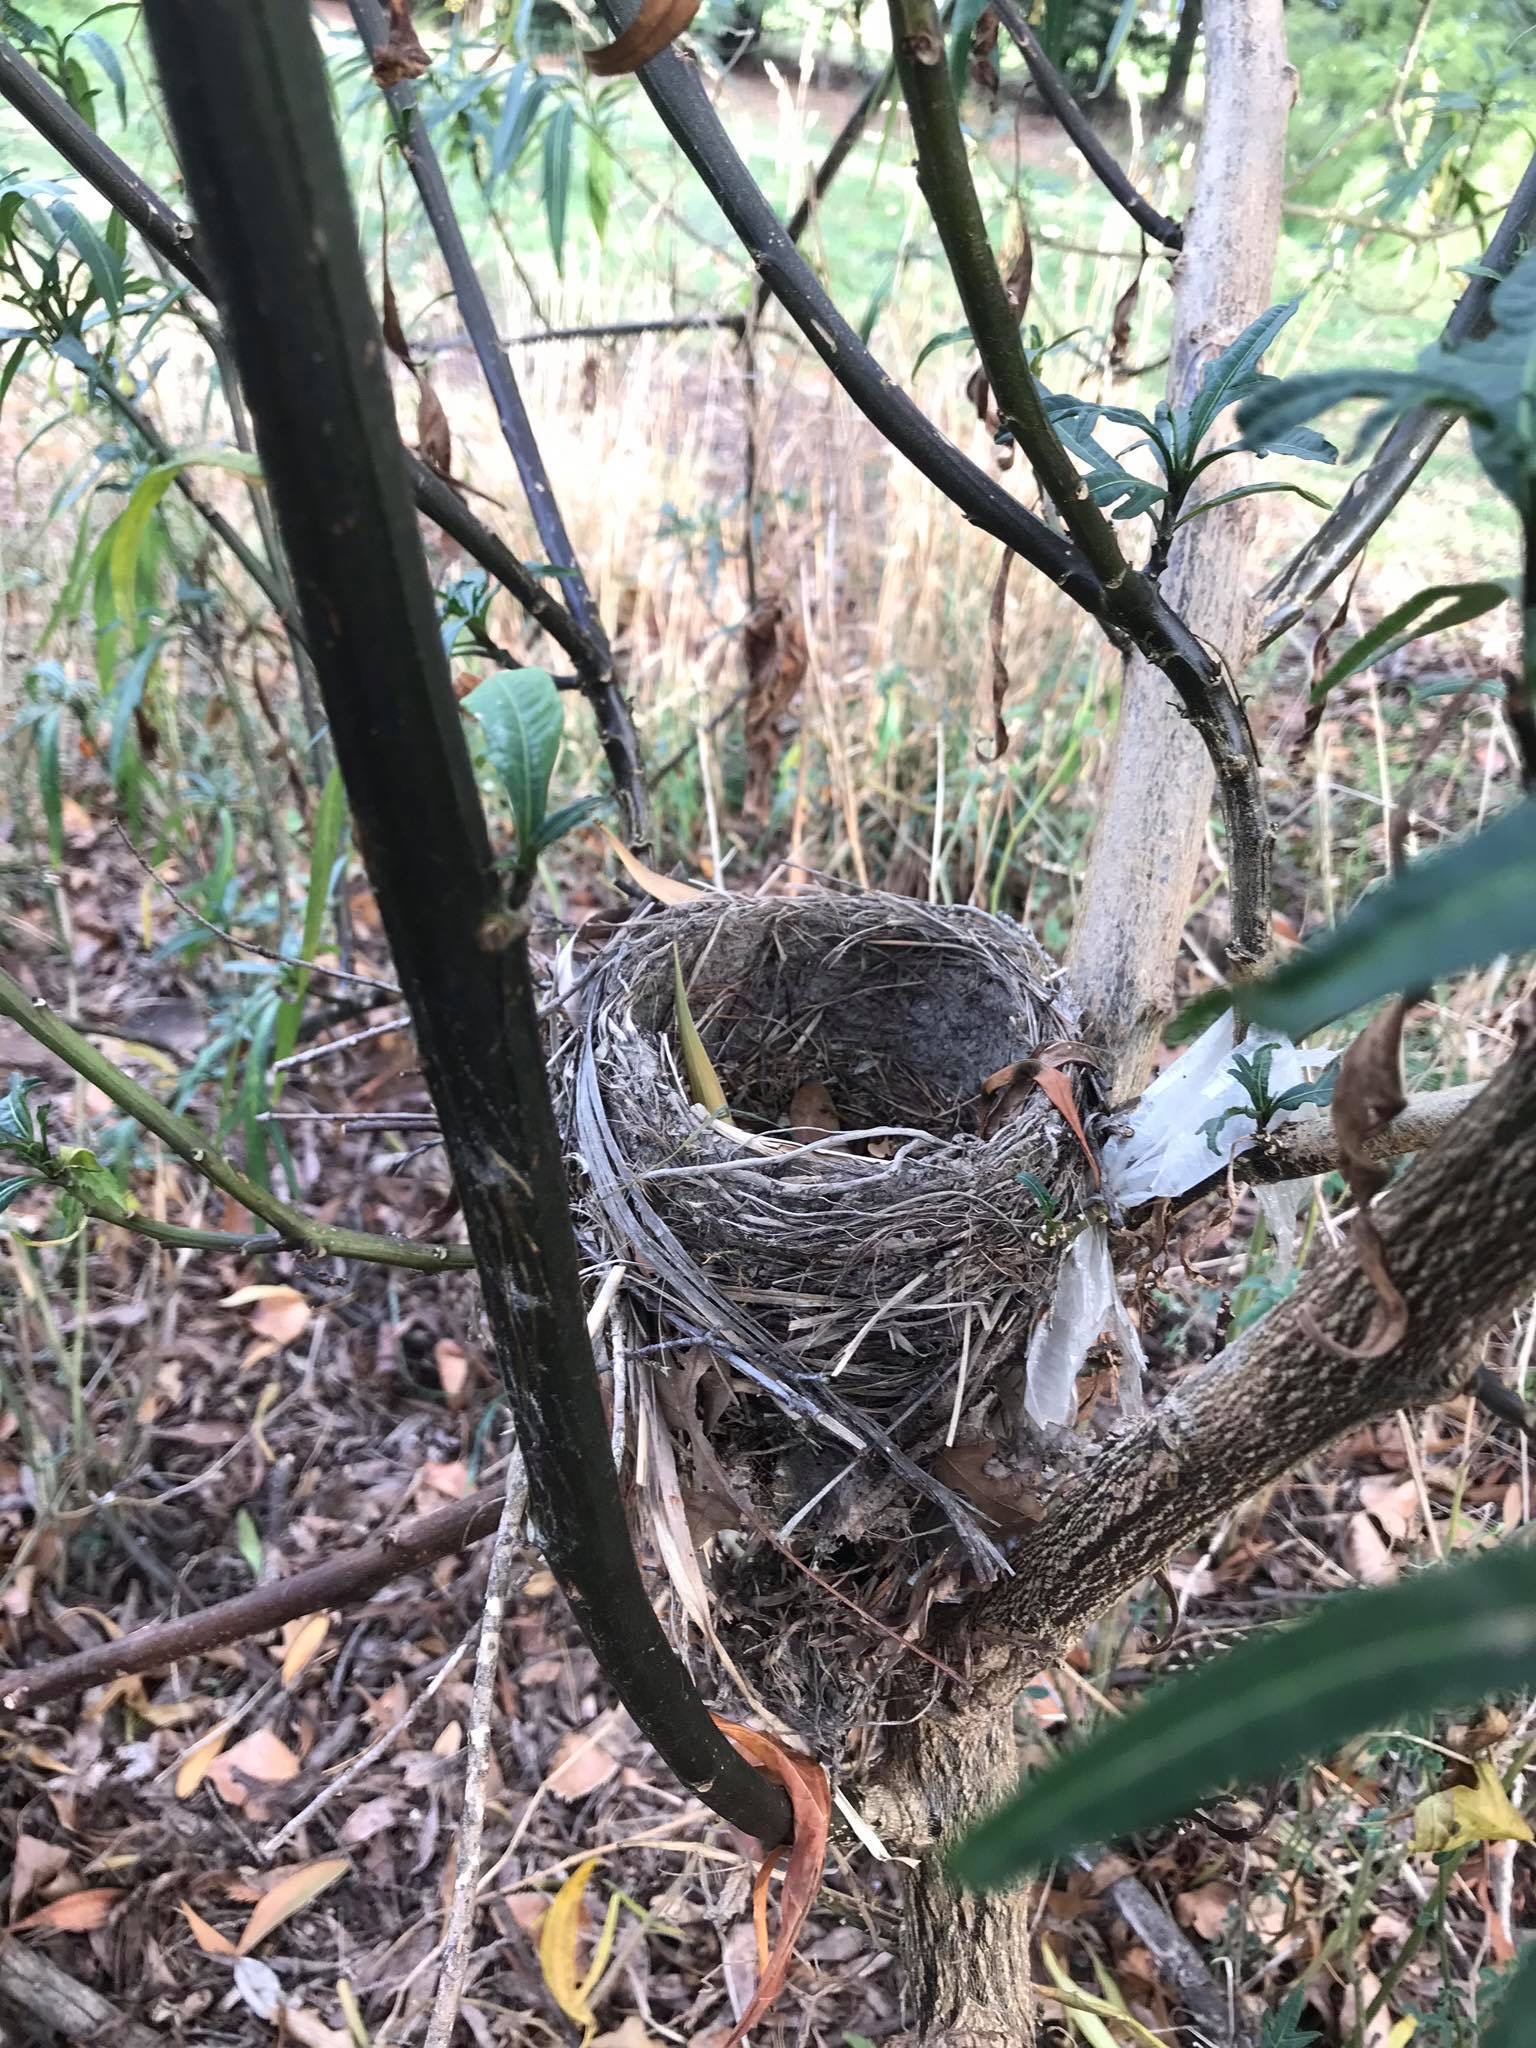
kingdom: Animalia
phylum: Chordata
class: Aves
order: Passeriformes
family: Turdidae
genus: Turdus
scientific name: Turdus philomelos
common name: Song thrush
